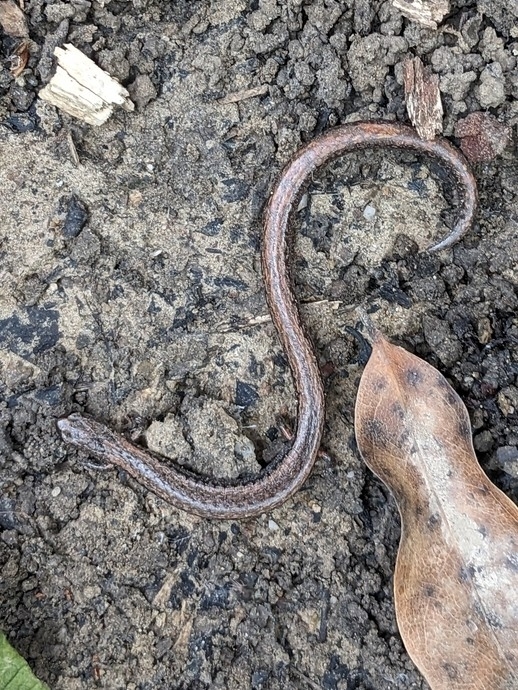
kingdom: Animalia
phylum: Chordata
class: Amphibia
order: Caudata
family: Plethodontidae
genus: Batrachoseps
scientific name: Batrachoseps attenuatus
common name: California slender salamander
